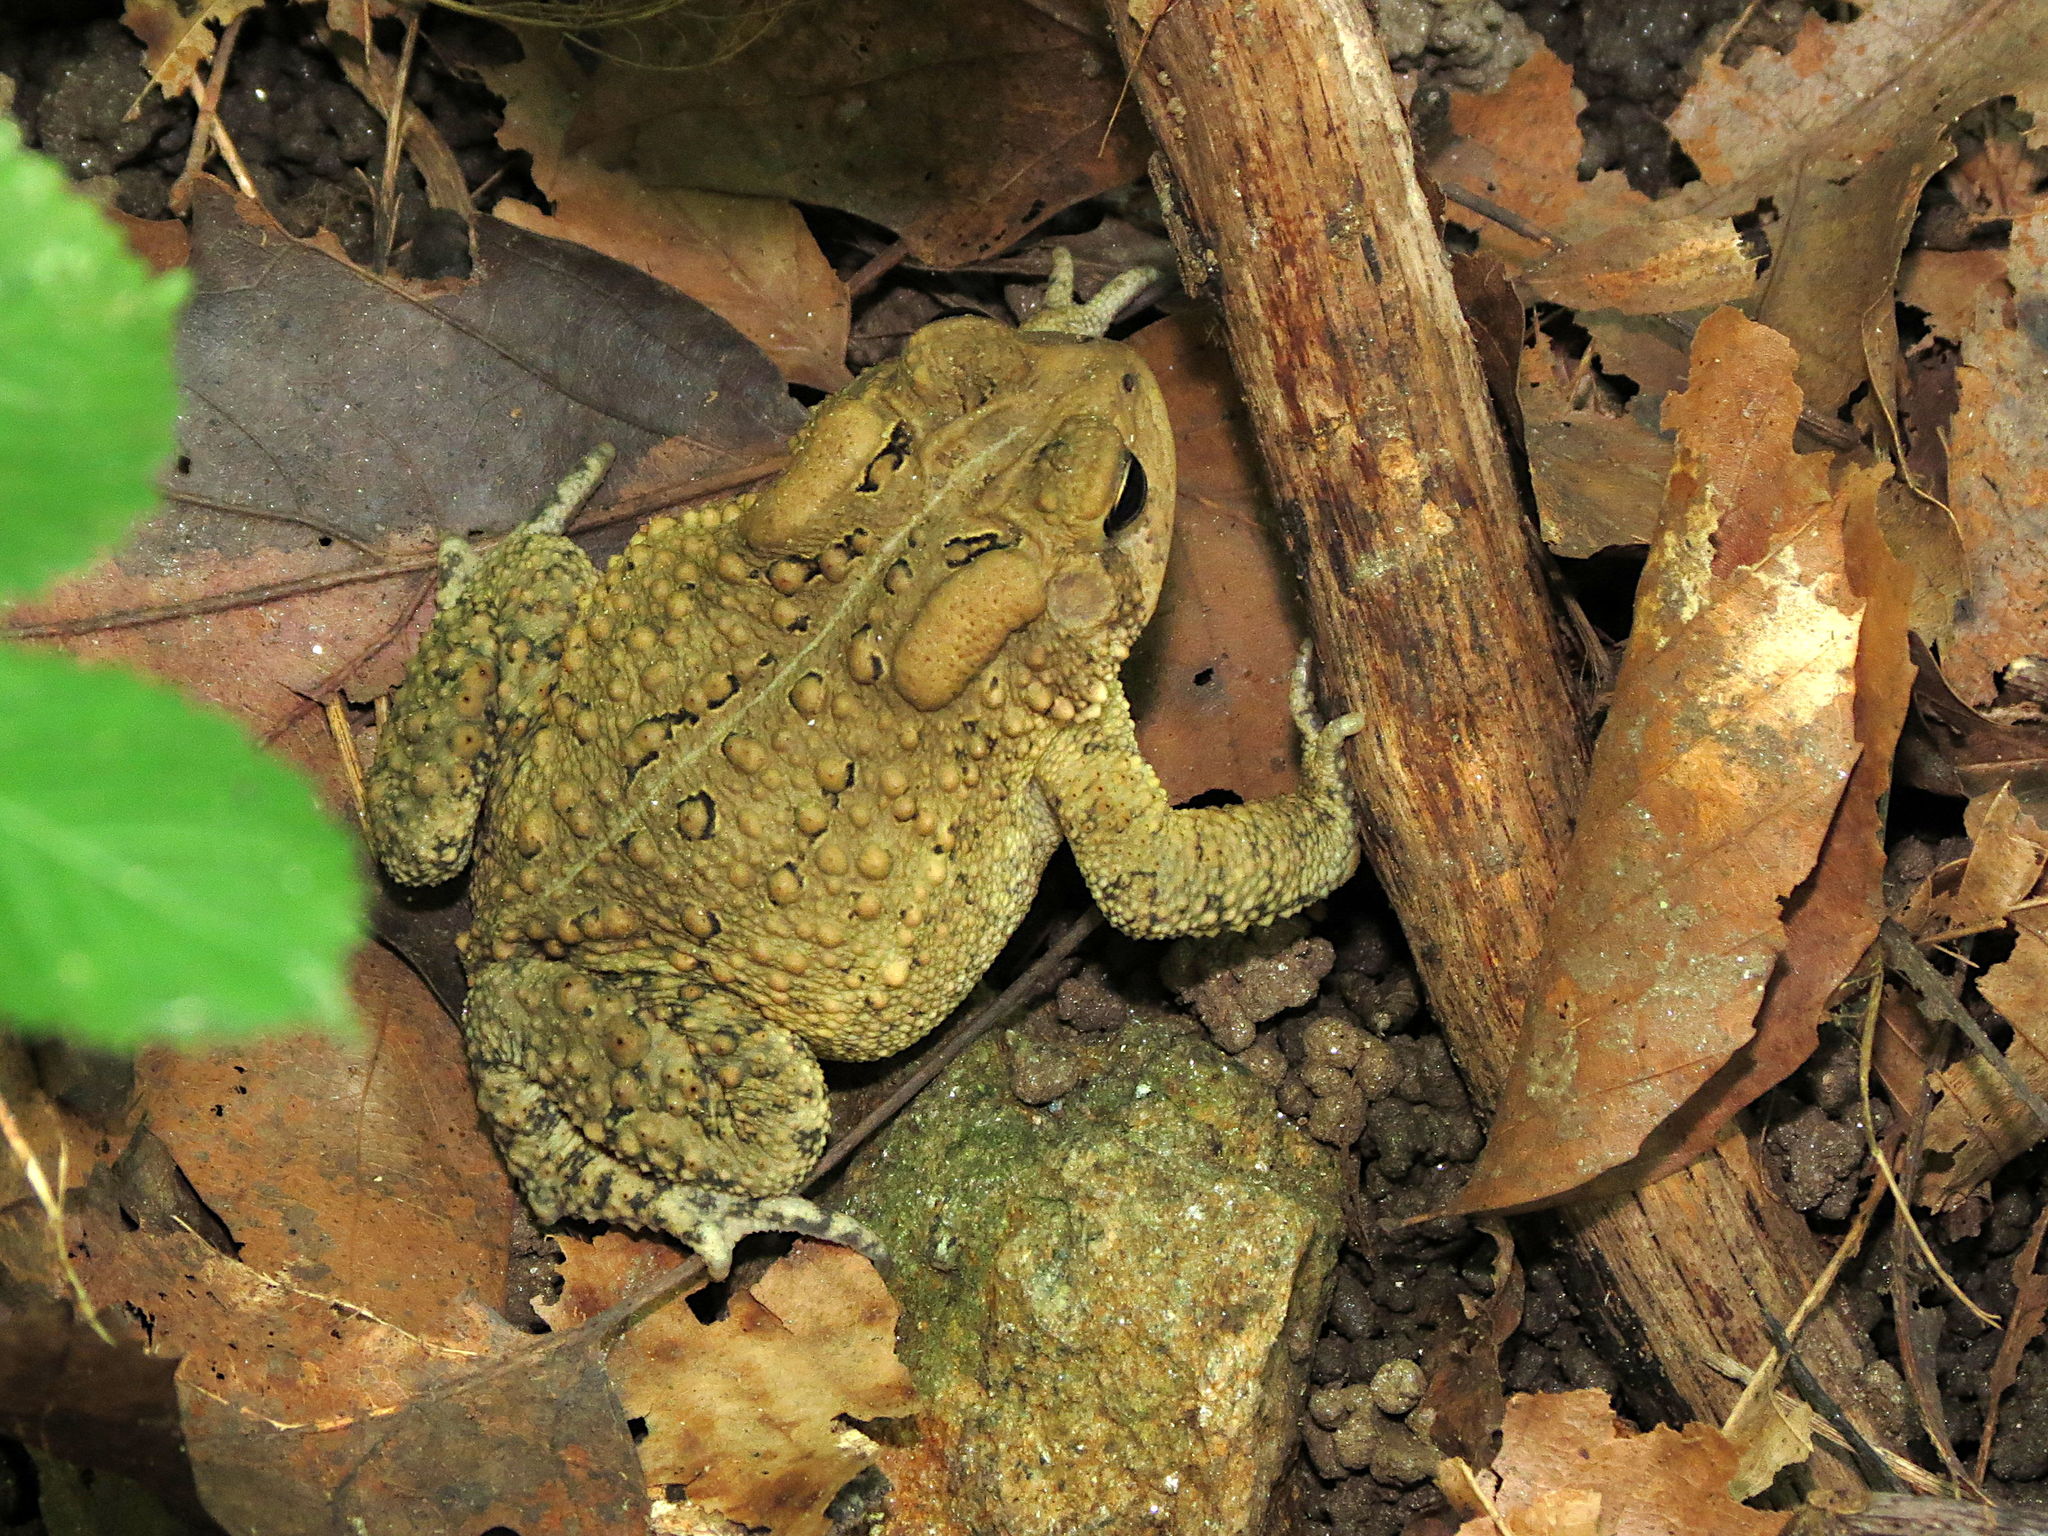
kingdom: Animalia
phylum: Chordata
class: Amphibia
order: Anura
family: Bufonidae
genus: Anaxyrus
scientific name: Anaxyrus americanus
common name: American toad
